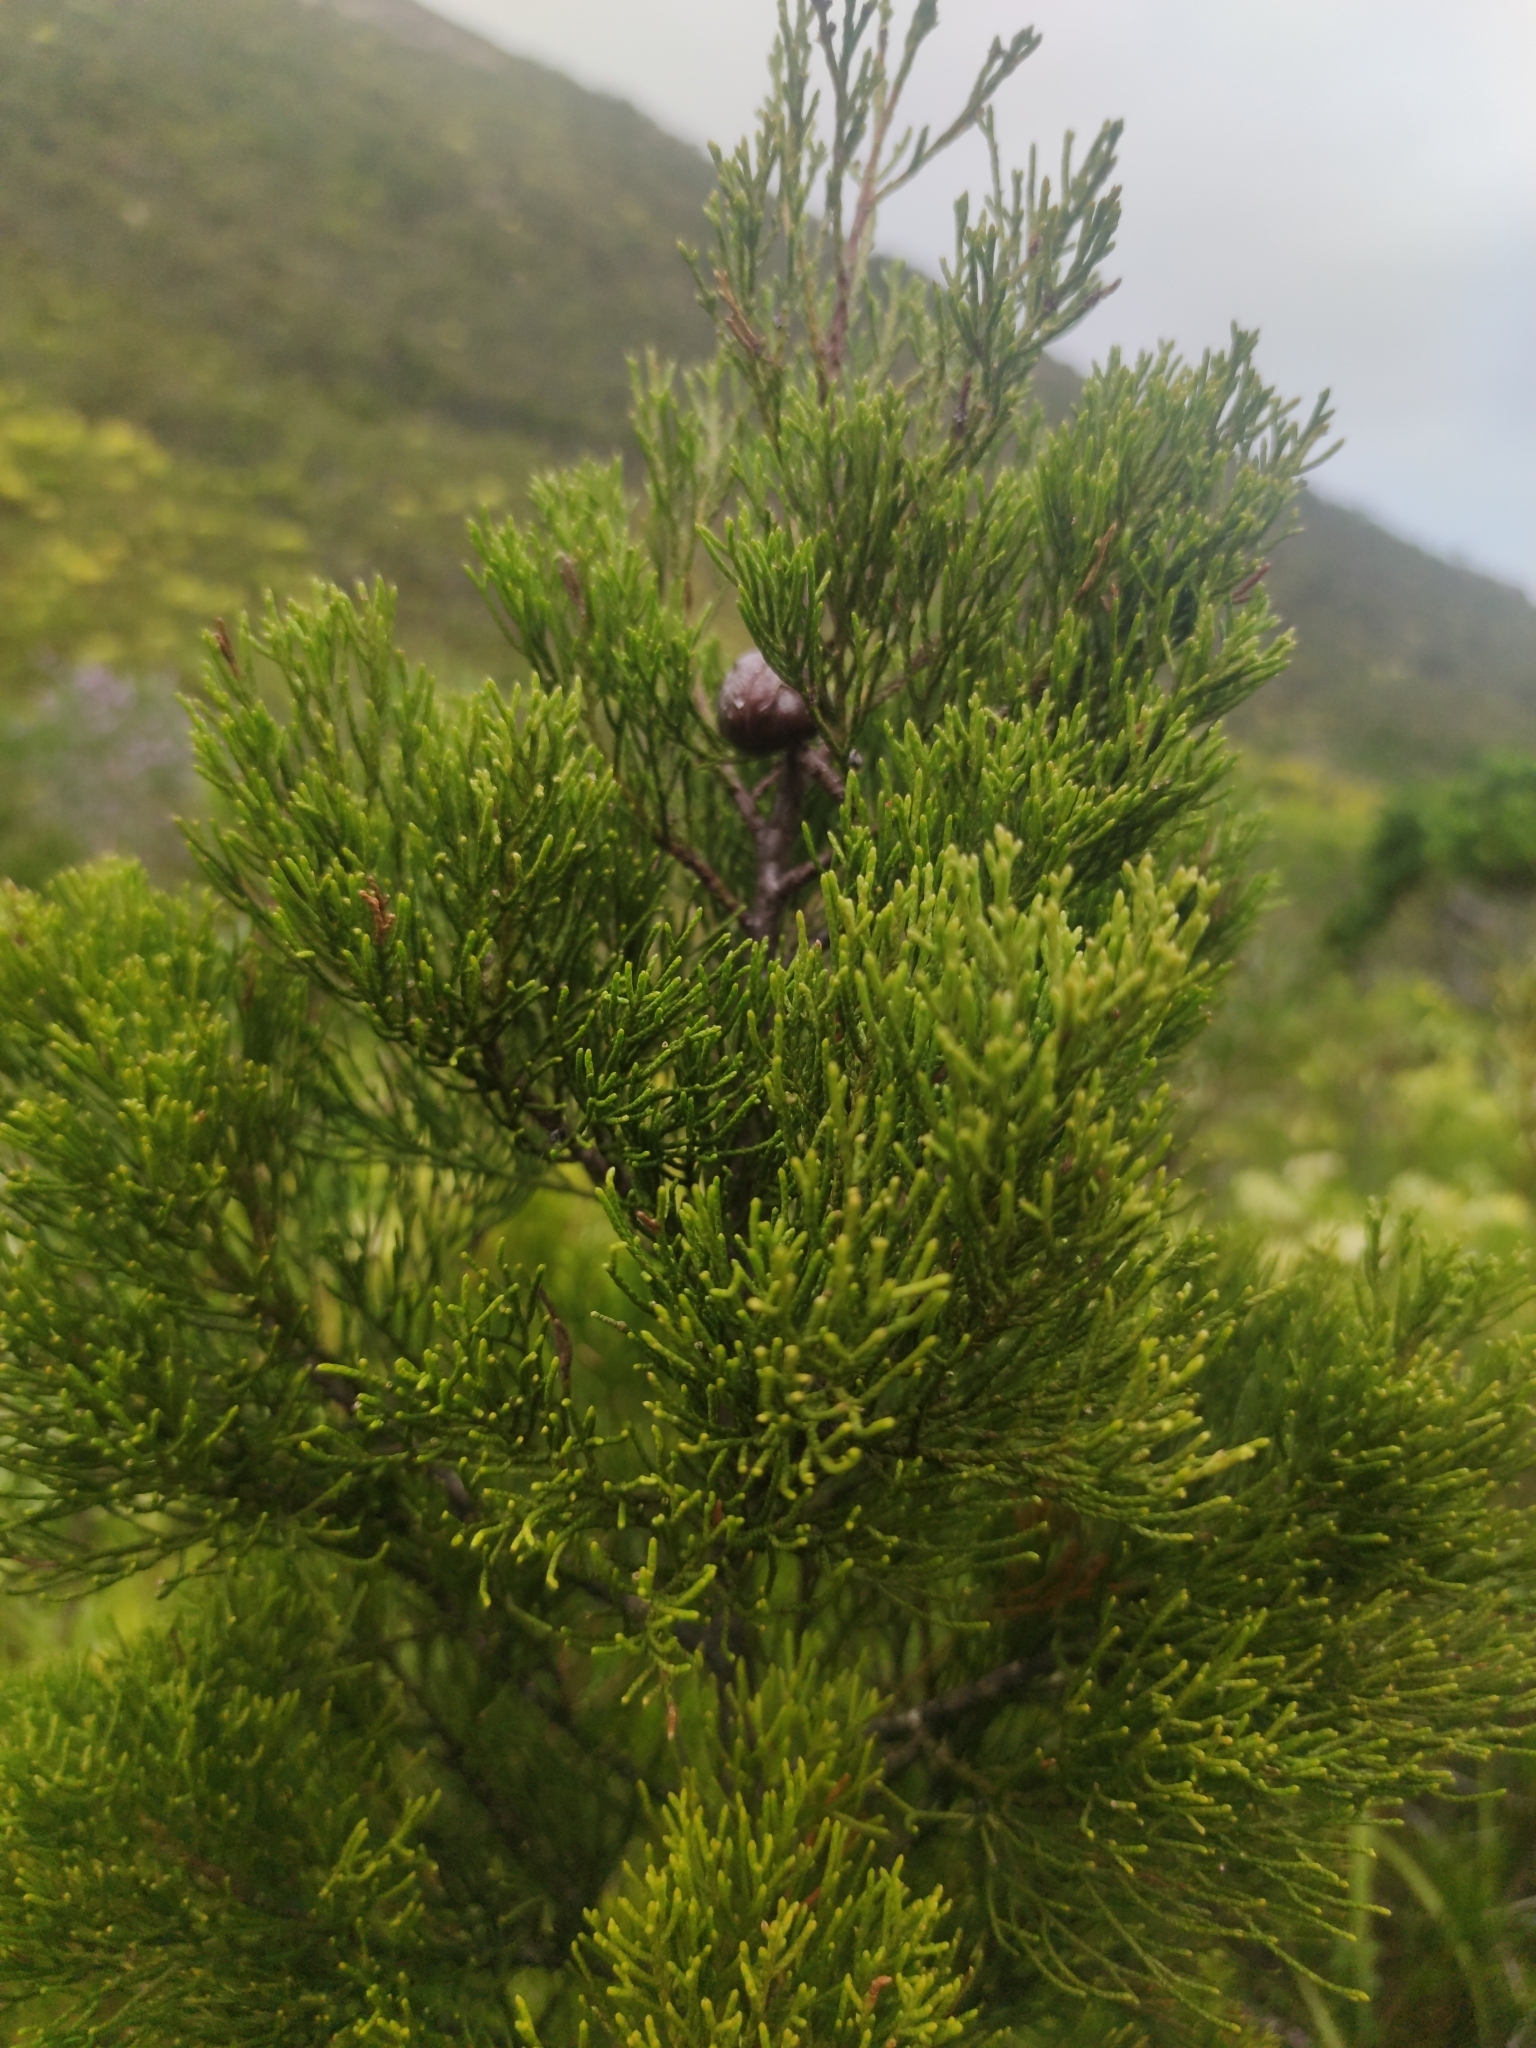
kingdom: Plantae
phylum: Tracheophyta
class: Pinopsida
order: Pinales
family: Cupressaceae
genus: Widdringtonia
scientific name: Widdringtonia nodiflora
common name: Cape cypress
